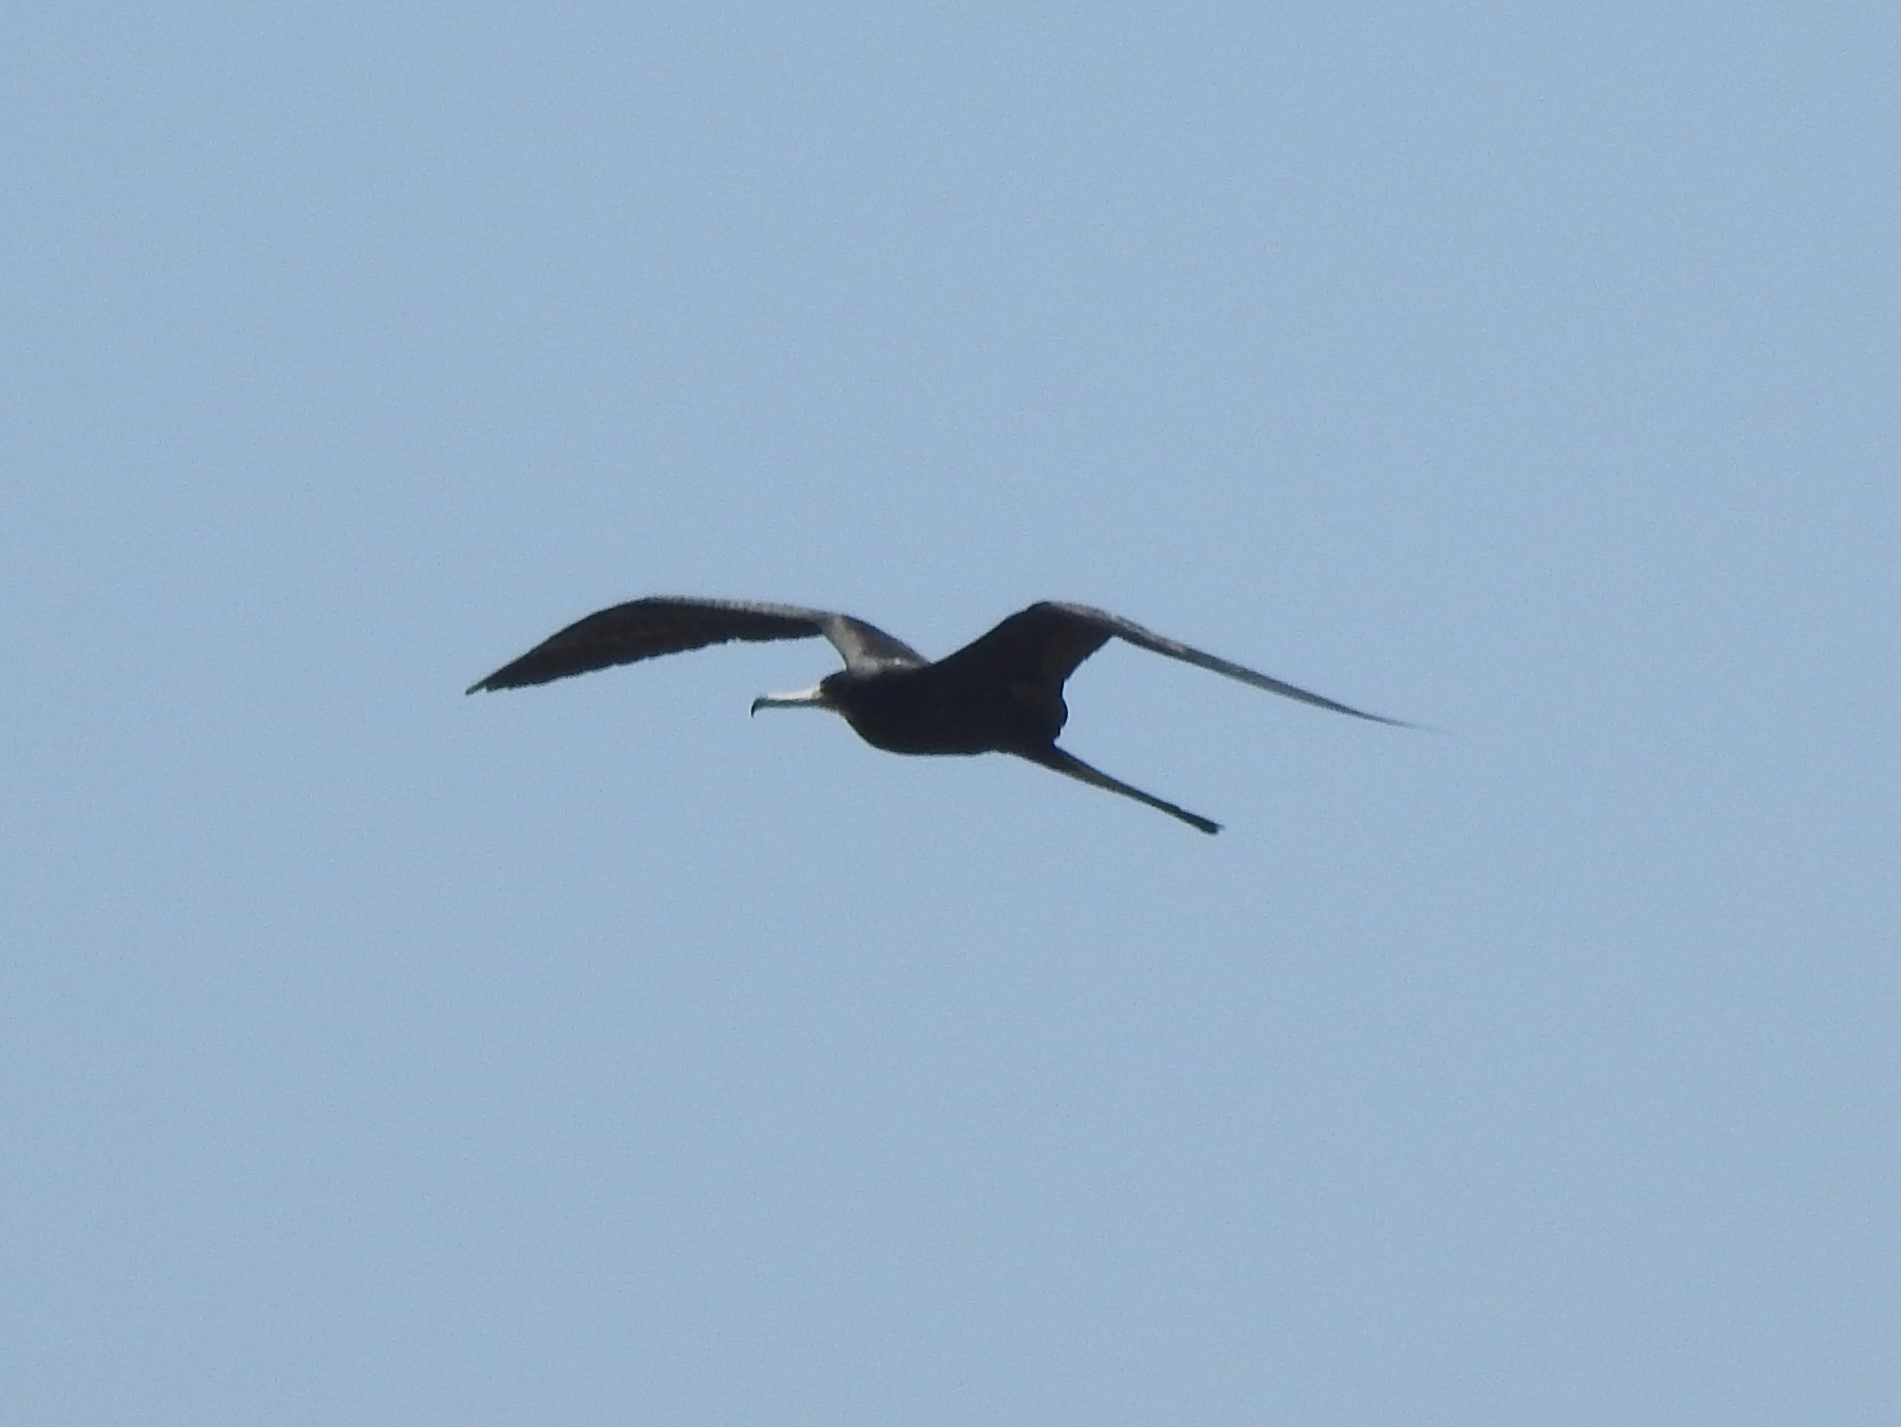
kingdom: Animalia
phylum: Chordata
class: Aves
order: Suliformes
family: Fregatidae
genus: Fregata
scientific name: Fregata magnificens
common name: Magnificent frigatebird
